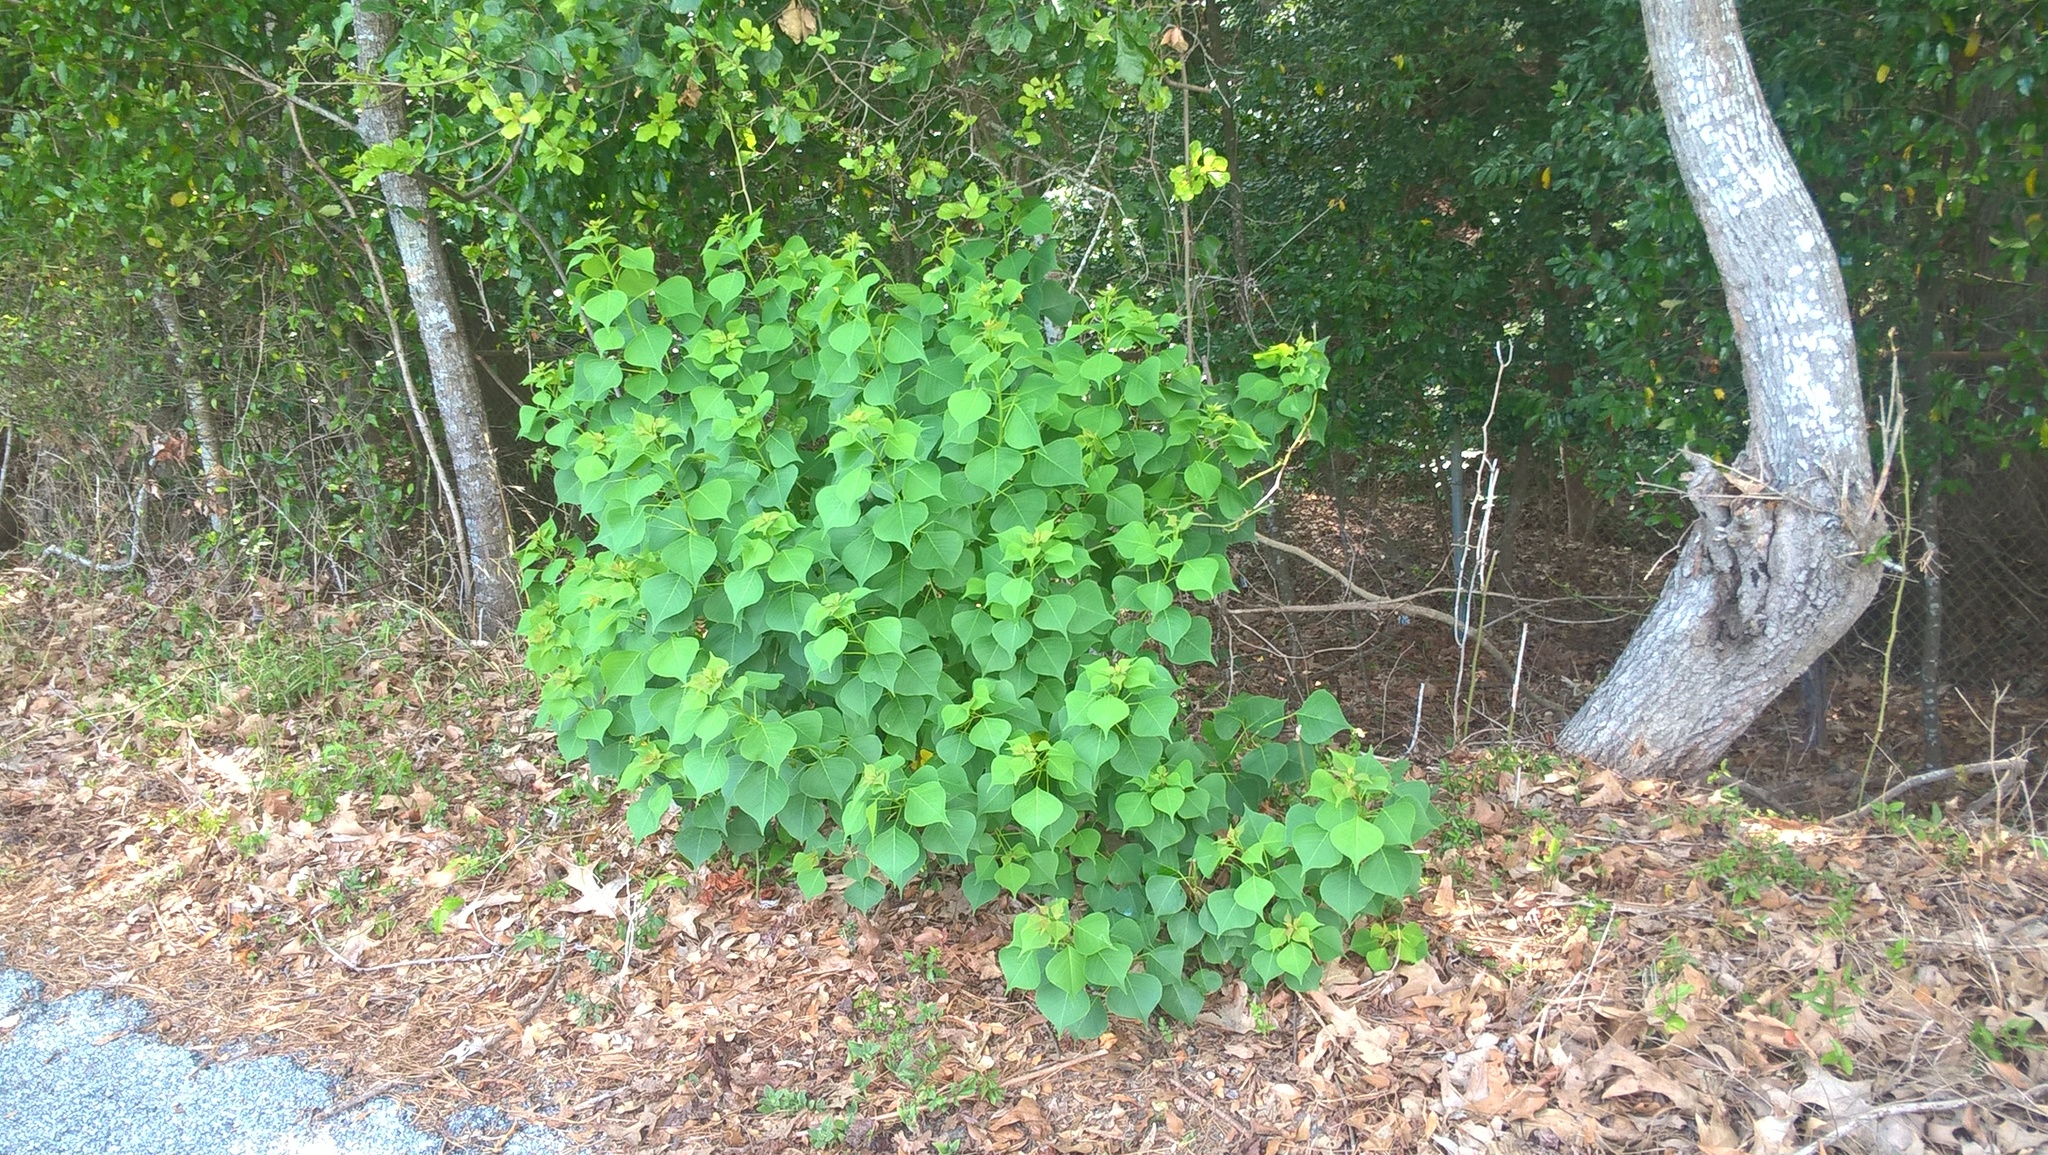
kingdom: Plantae
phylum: Tracheophyta
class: Magnoliopsida
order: Malpighiales
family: Euphorbiaceae
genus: Triadica
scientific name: Triadica sebifera
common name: Chinese tallow
